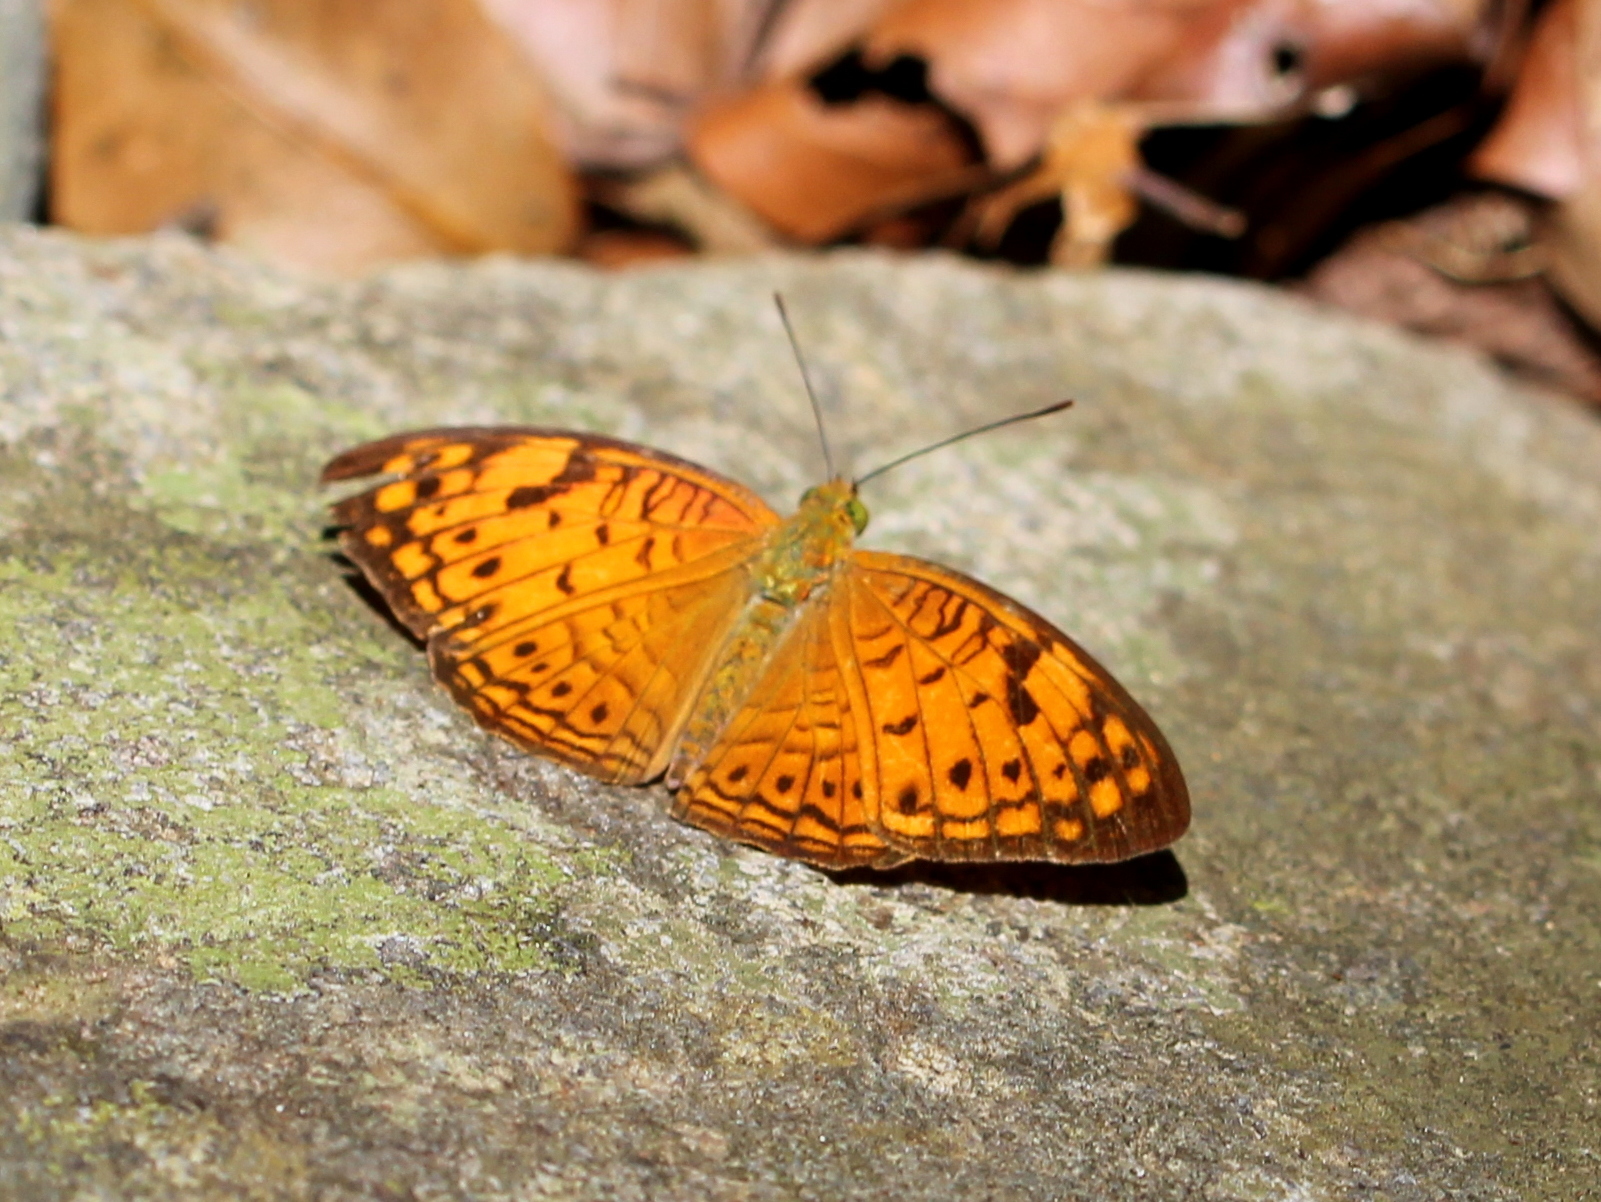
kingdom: Animalia
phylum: Arthropoda
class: Insecta
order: Lepidoptera
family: Nymphalidae
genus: Phalanta
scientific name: Phalanta alcippe
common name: Small leopard
